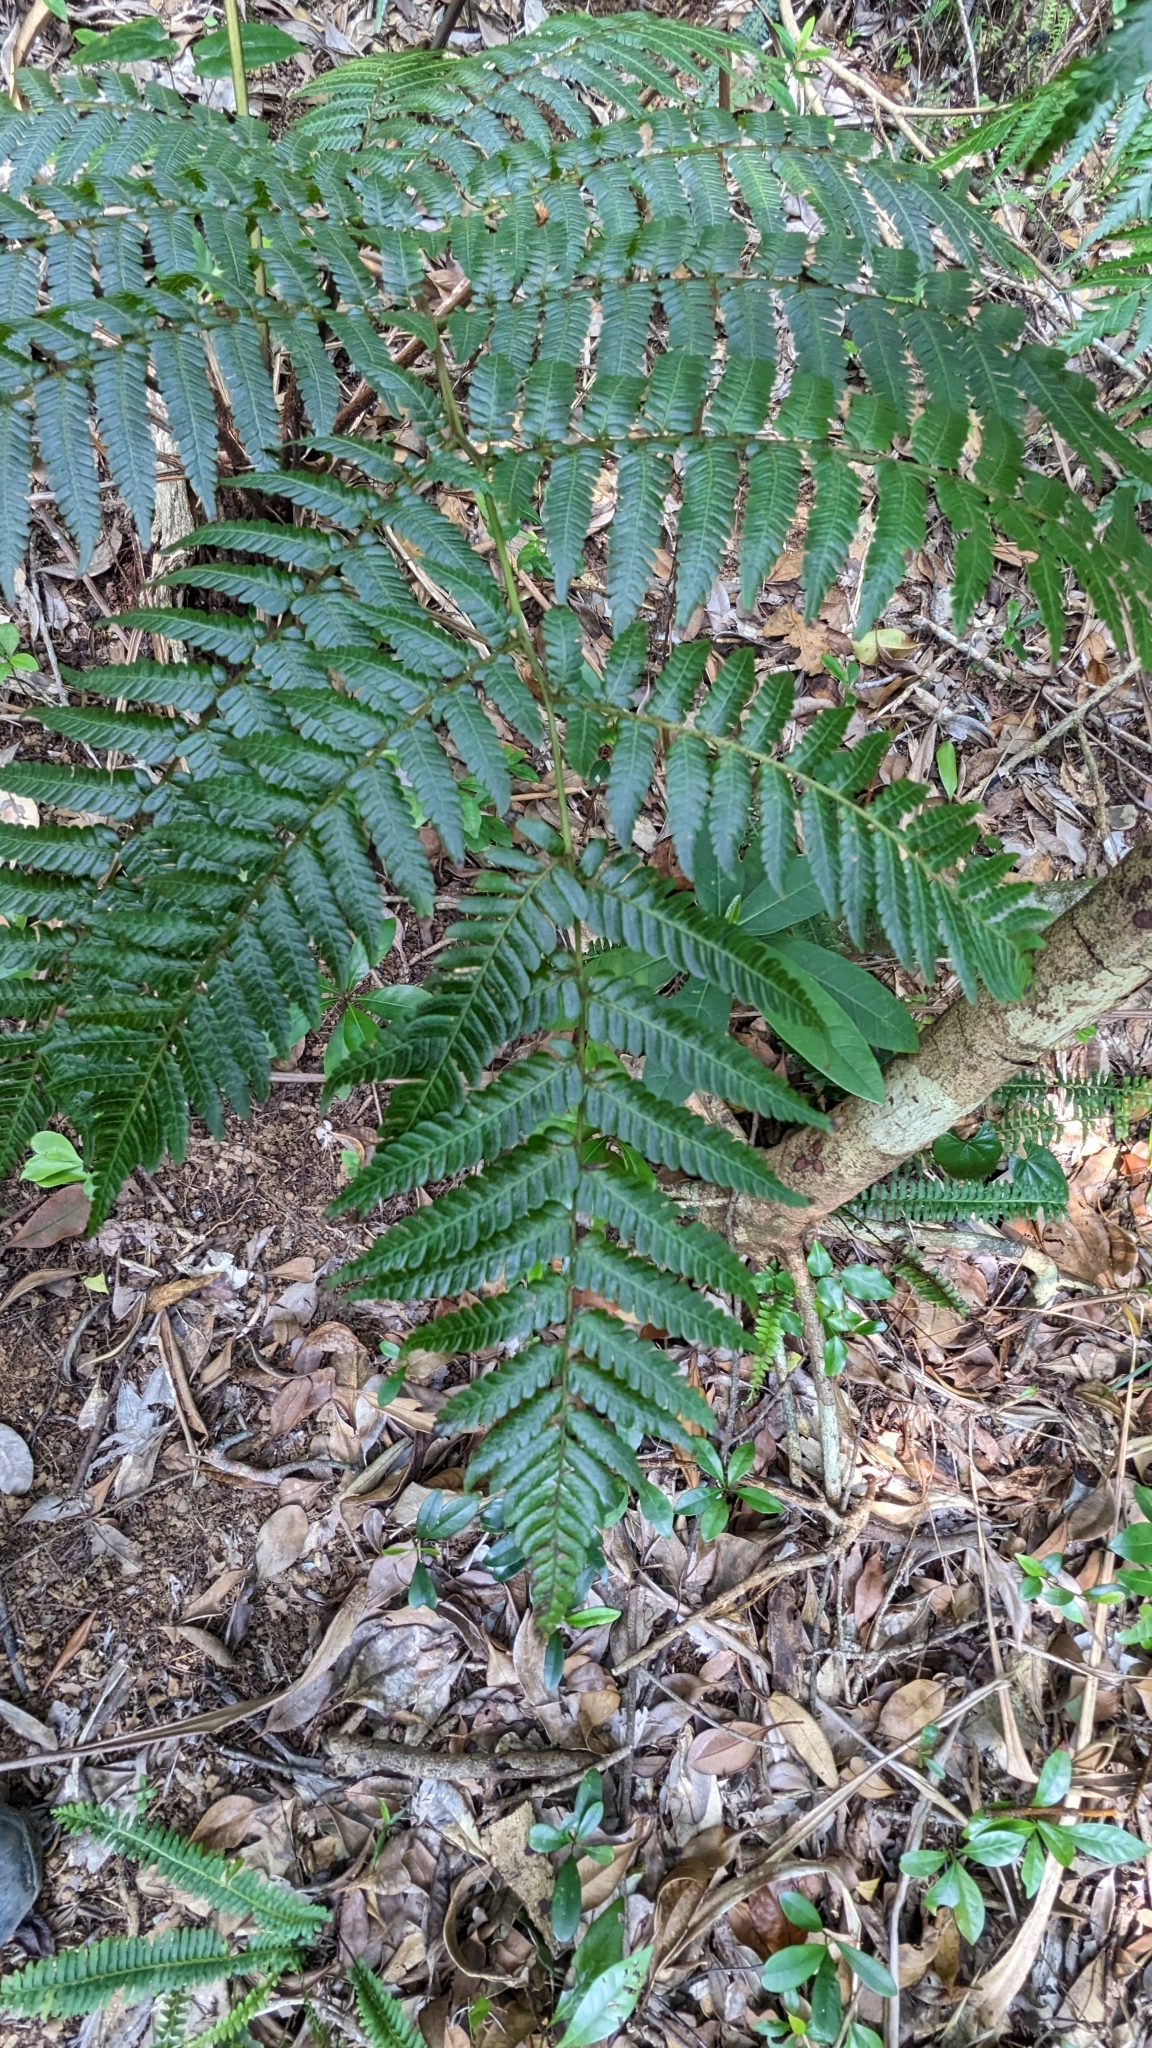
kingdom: Plantae
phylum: Tracheophyta
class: Polypodiopsida
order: Cyatheales
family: Cyatheaceae
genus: Alsophila
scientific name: Alsophila fenicis
